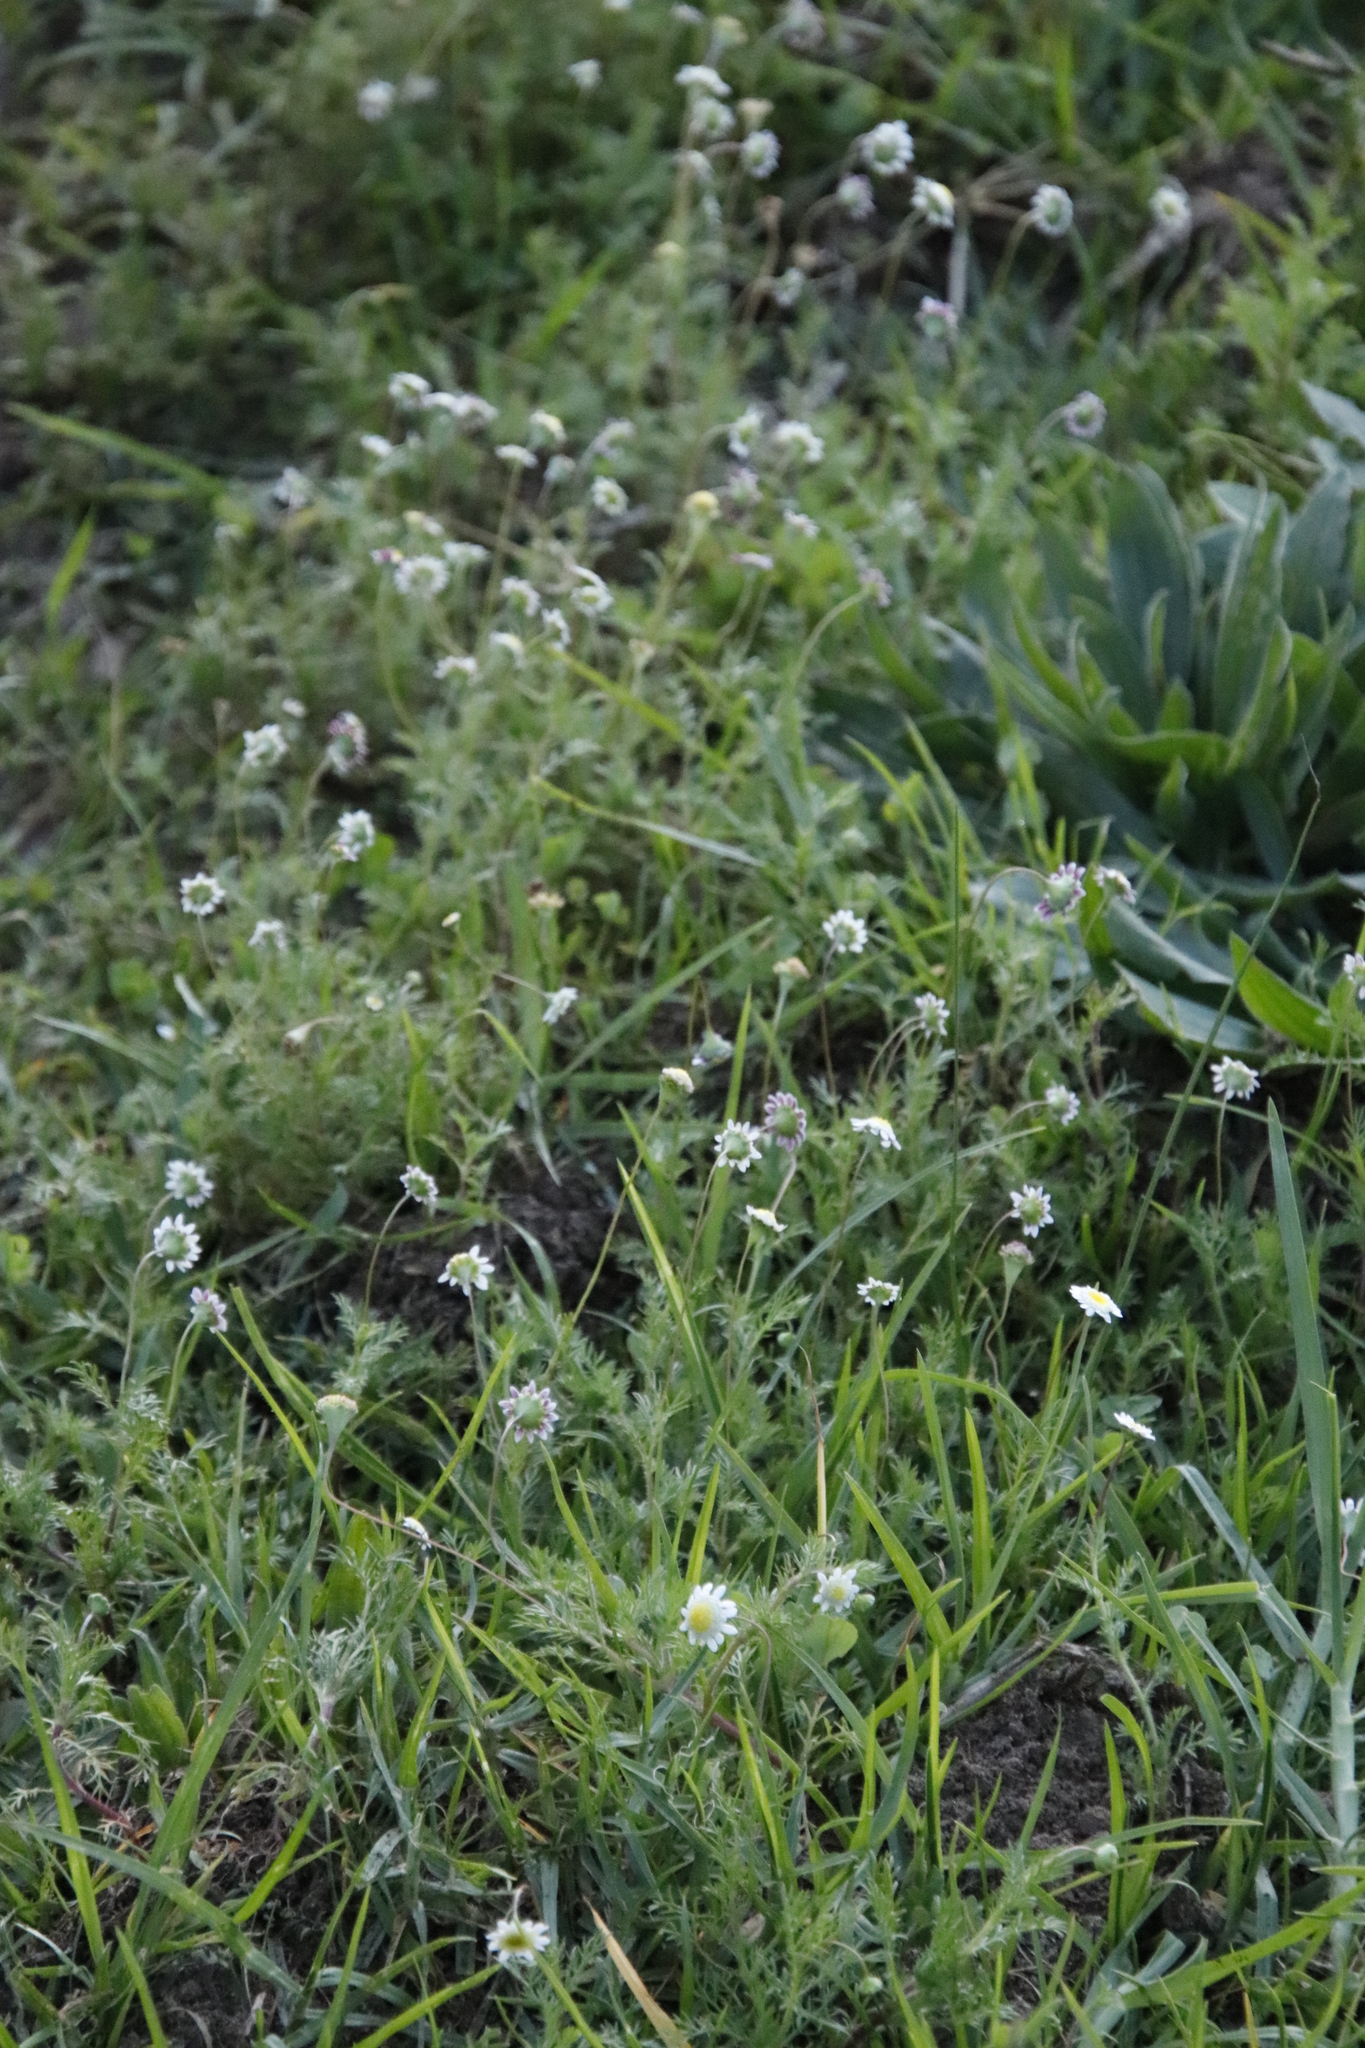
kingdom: Plantae
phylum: Tracheophyta
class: Magnoliopsida
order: Asterales
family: Asteraceae
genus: Cotula
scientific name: Cotula turbinata
